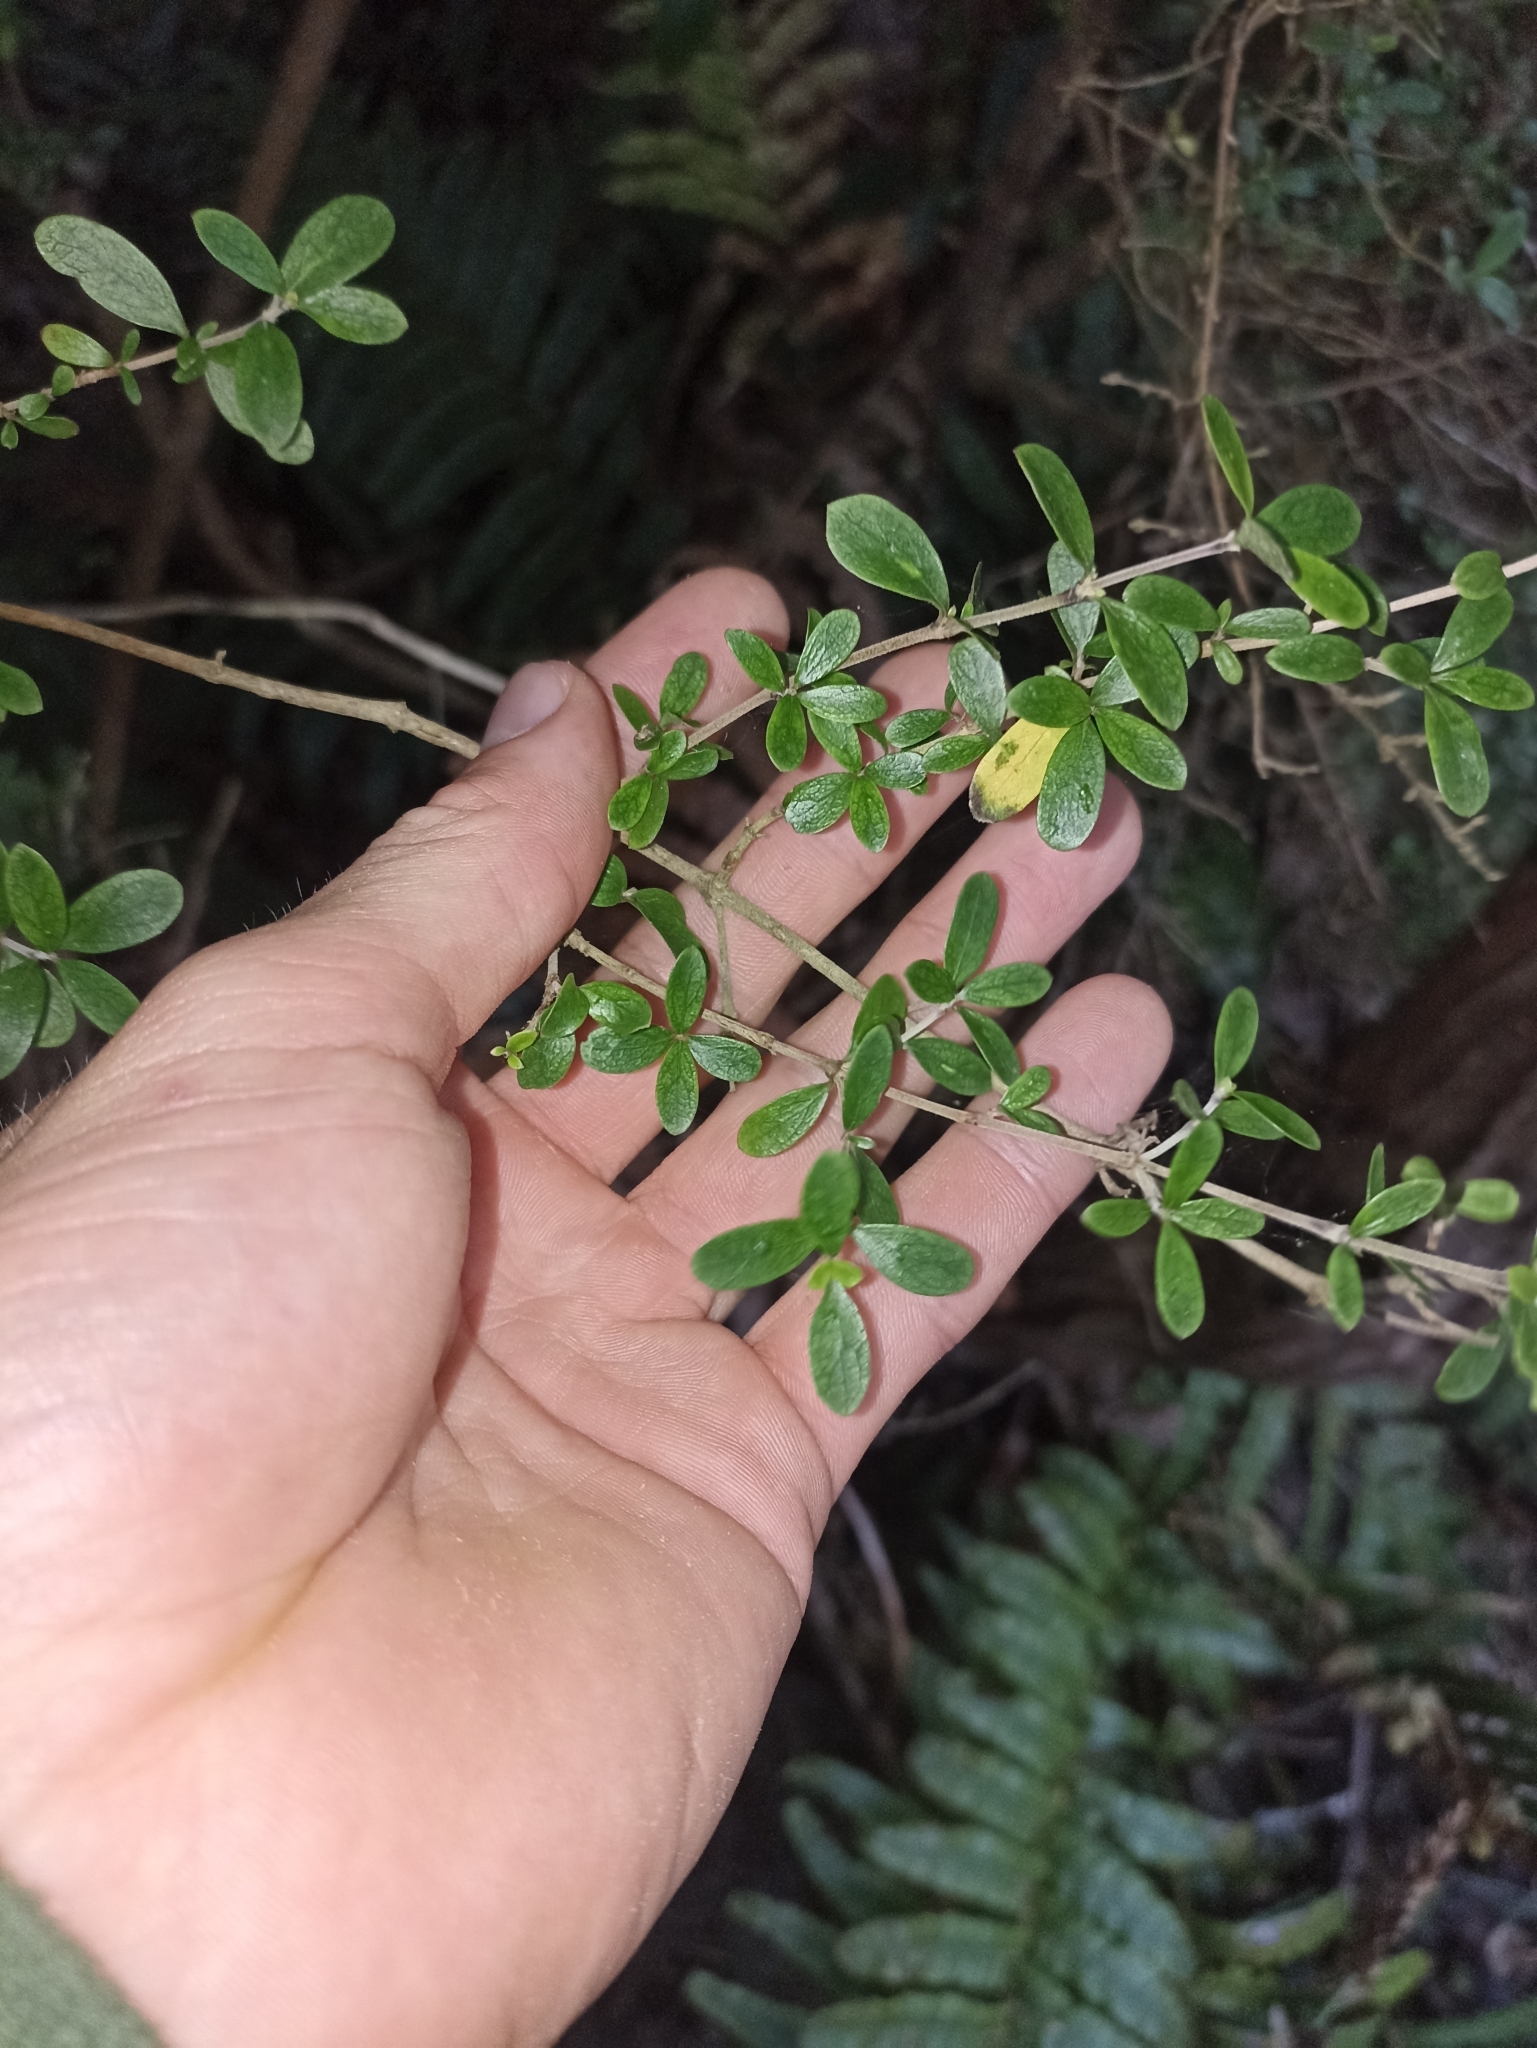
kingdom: Plantae
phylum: Tracheophyta
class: Magnoliopsida
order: Gentianales
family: Rubiaceae
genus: Coprosma
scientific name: Coprosma dumosa
